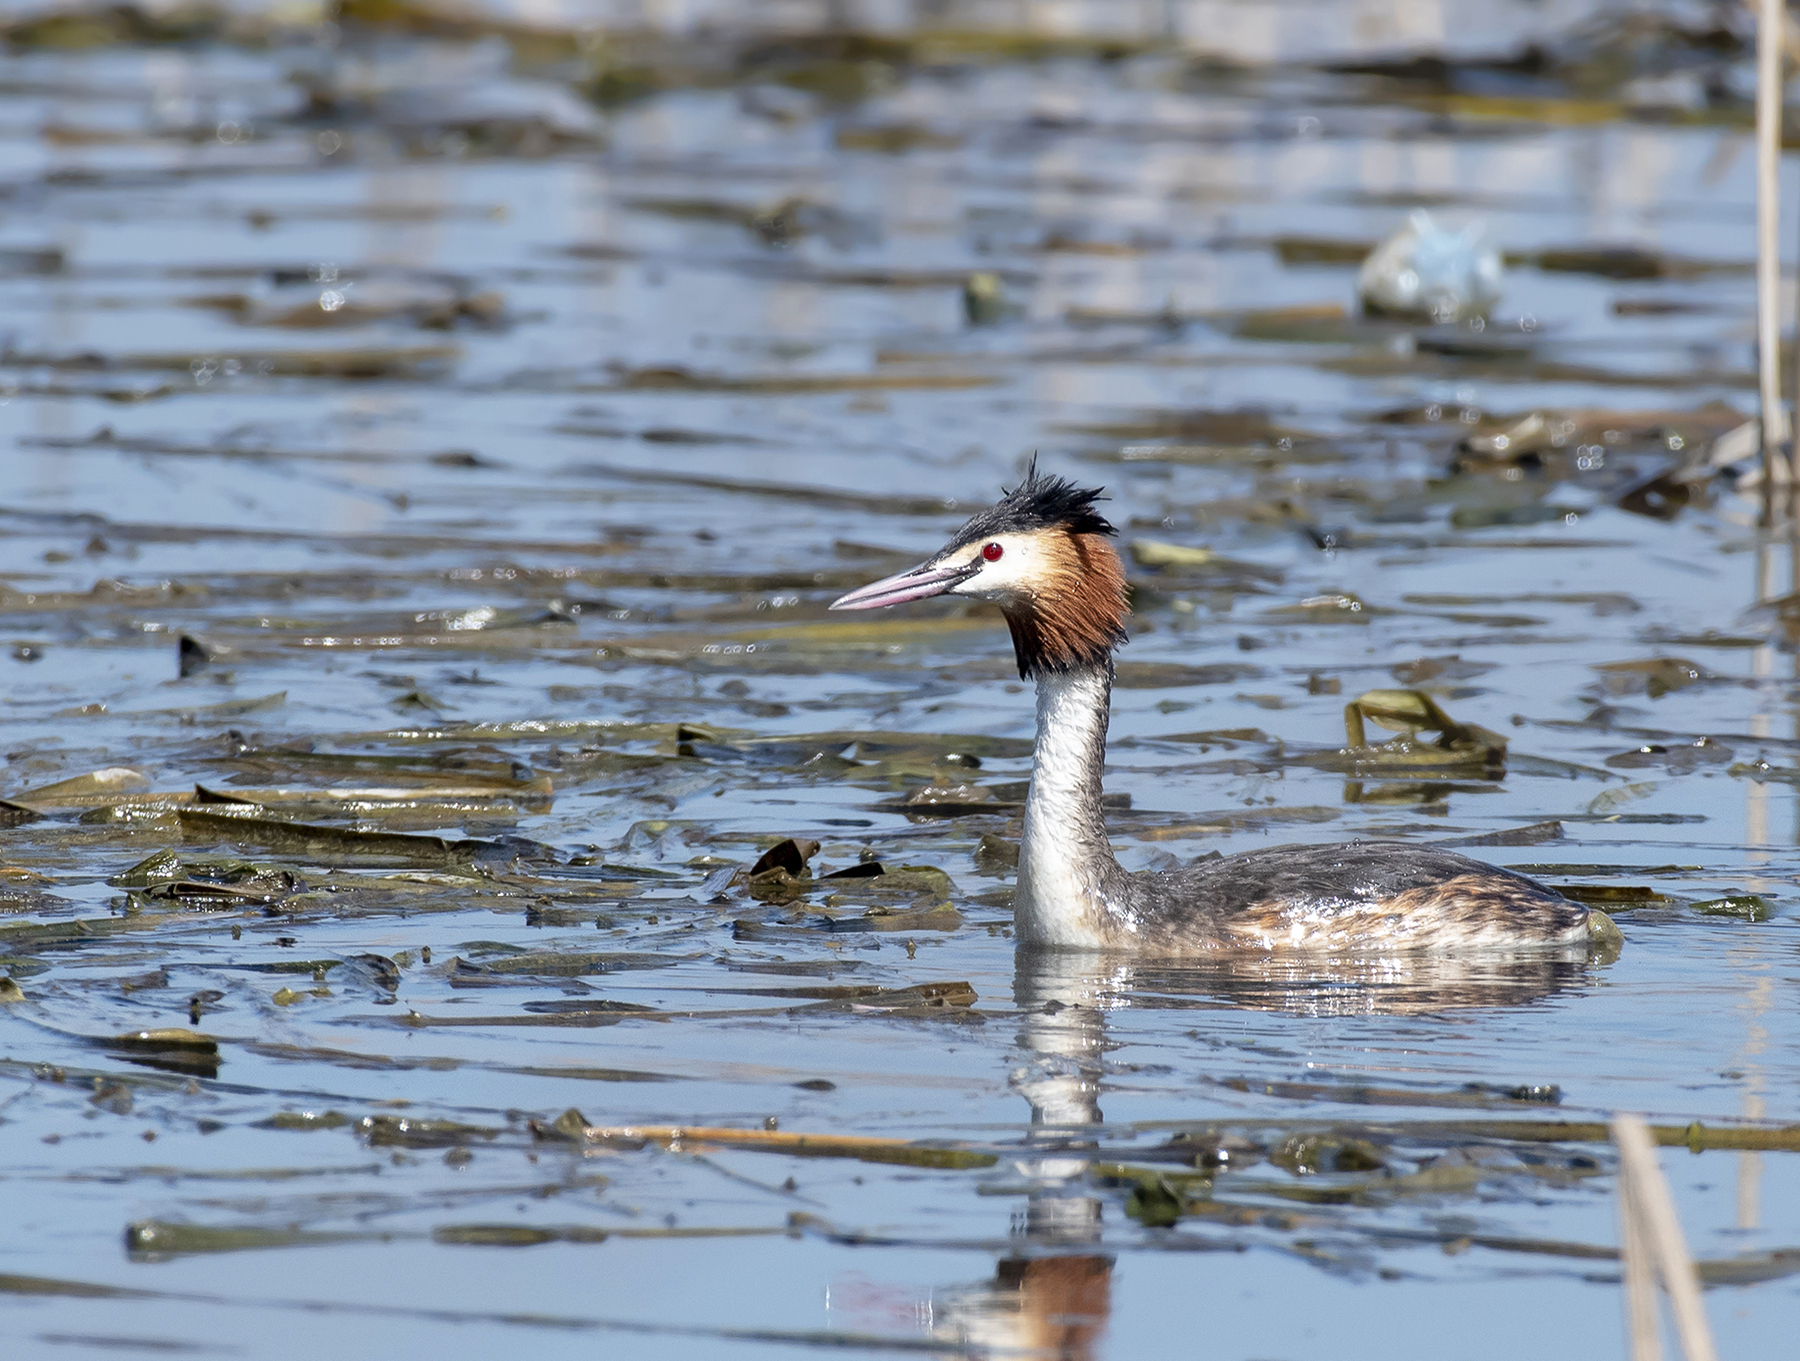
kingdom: Animalia
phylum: Chordata
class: Aves
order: Podicipediformes
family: Podicipedidae
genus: Podiceps
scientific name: Podiceps cristatus
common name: Great crested grebe
